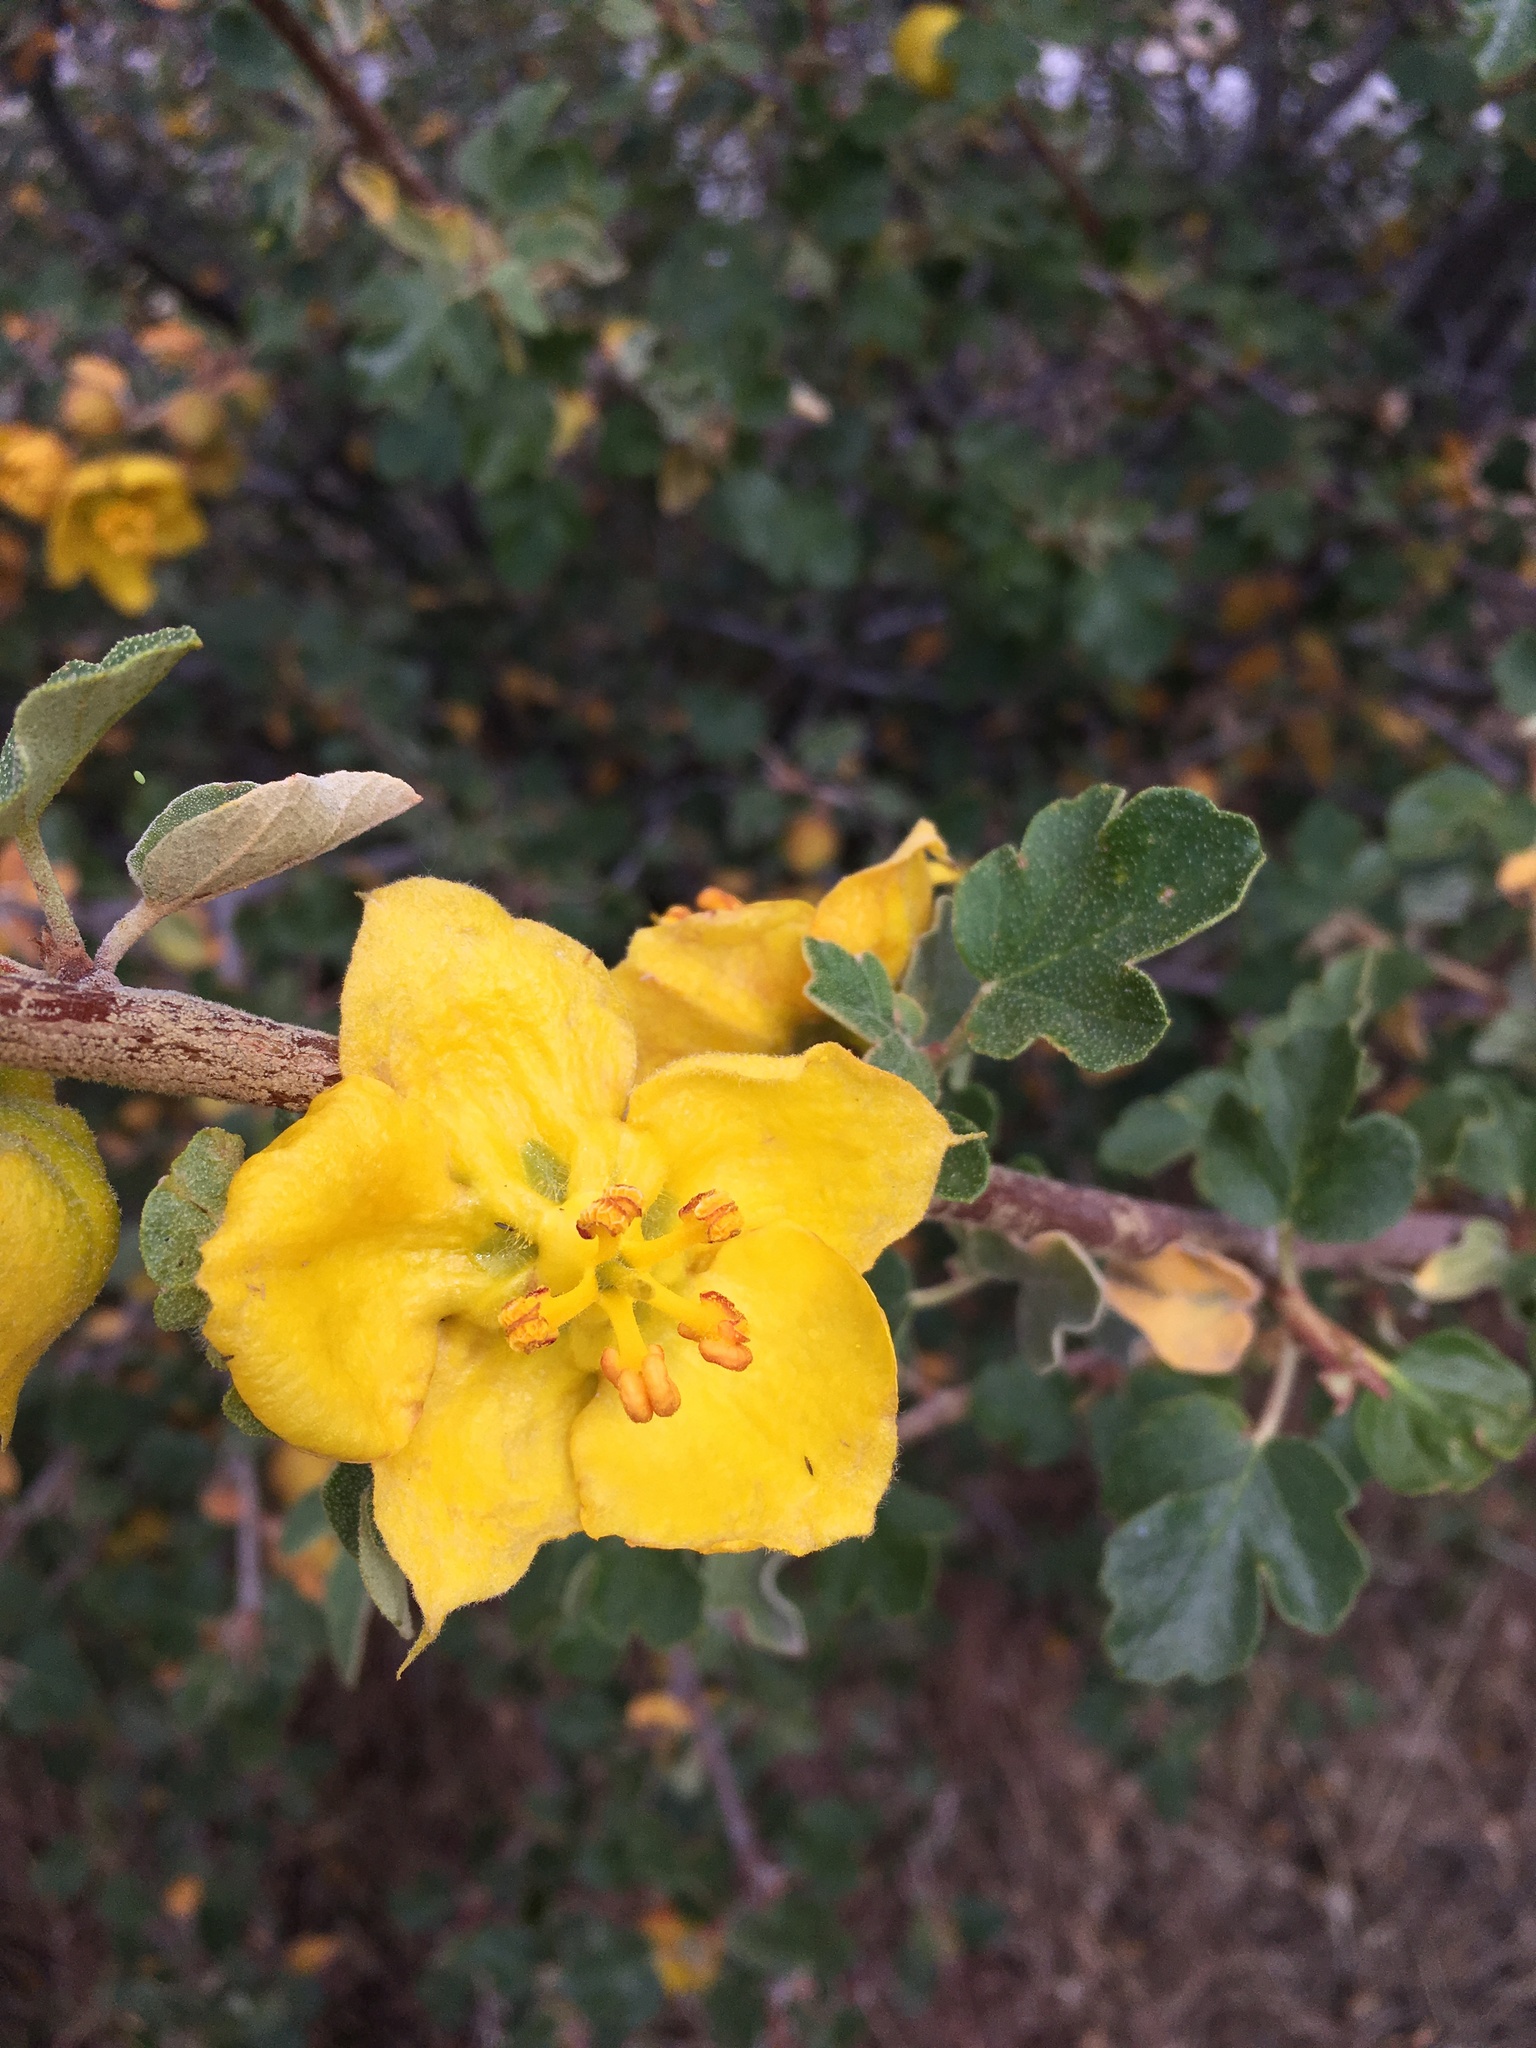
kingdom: Plantae
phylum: Tracheophyta
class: Magnoliopsida
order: Malvales
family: Malvaceae
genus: Fremontodendron
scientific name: Fremontodendron californicum
